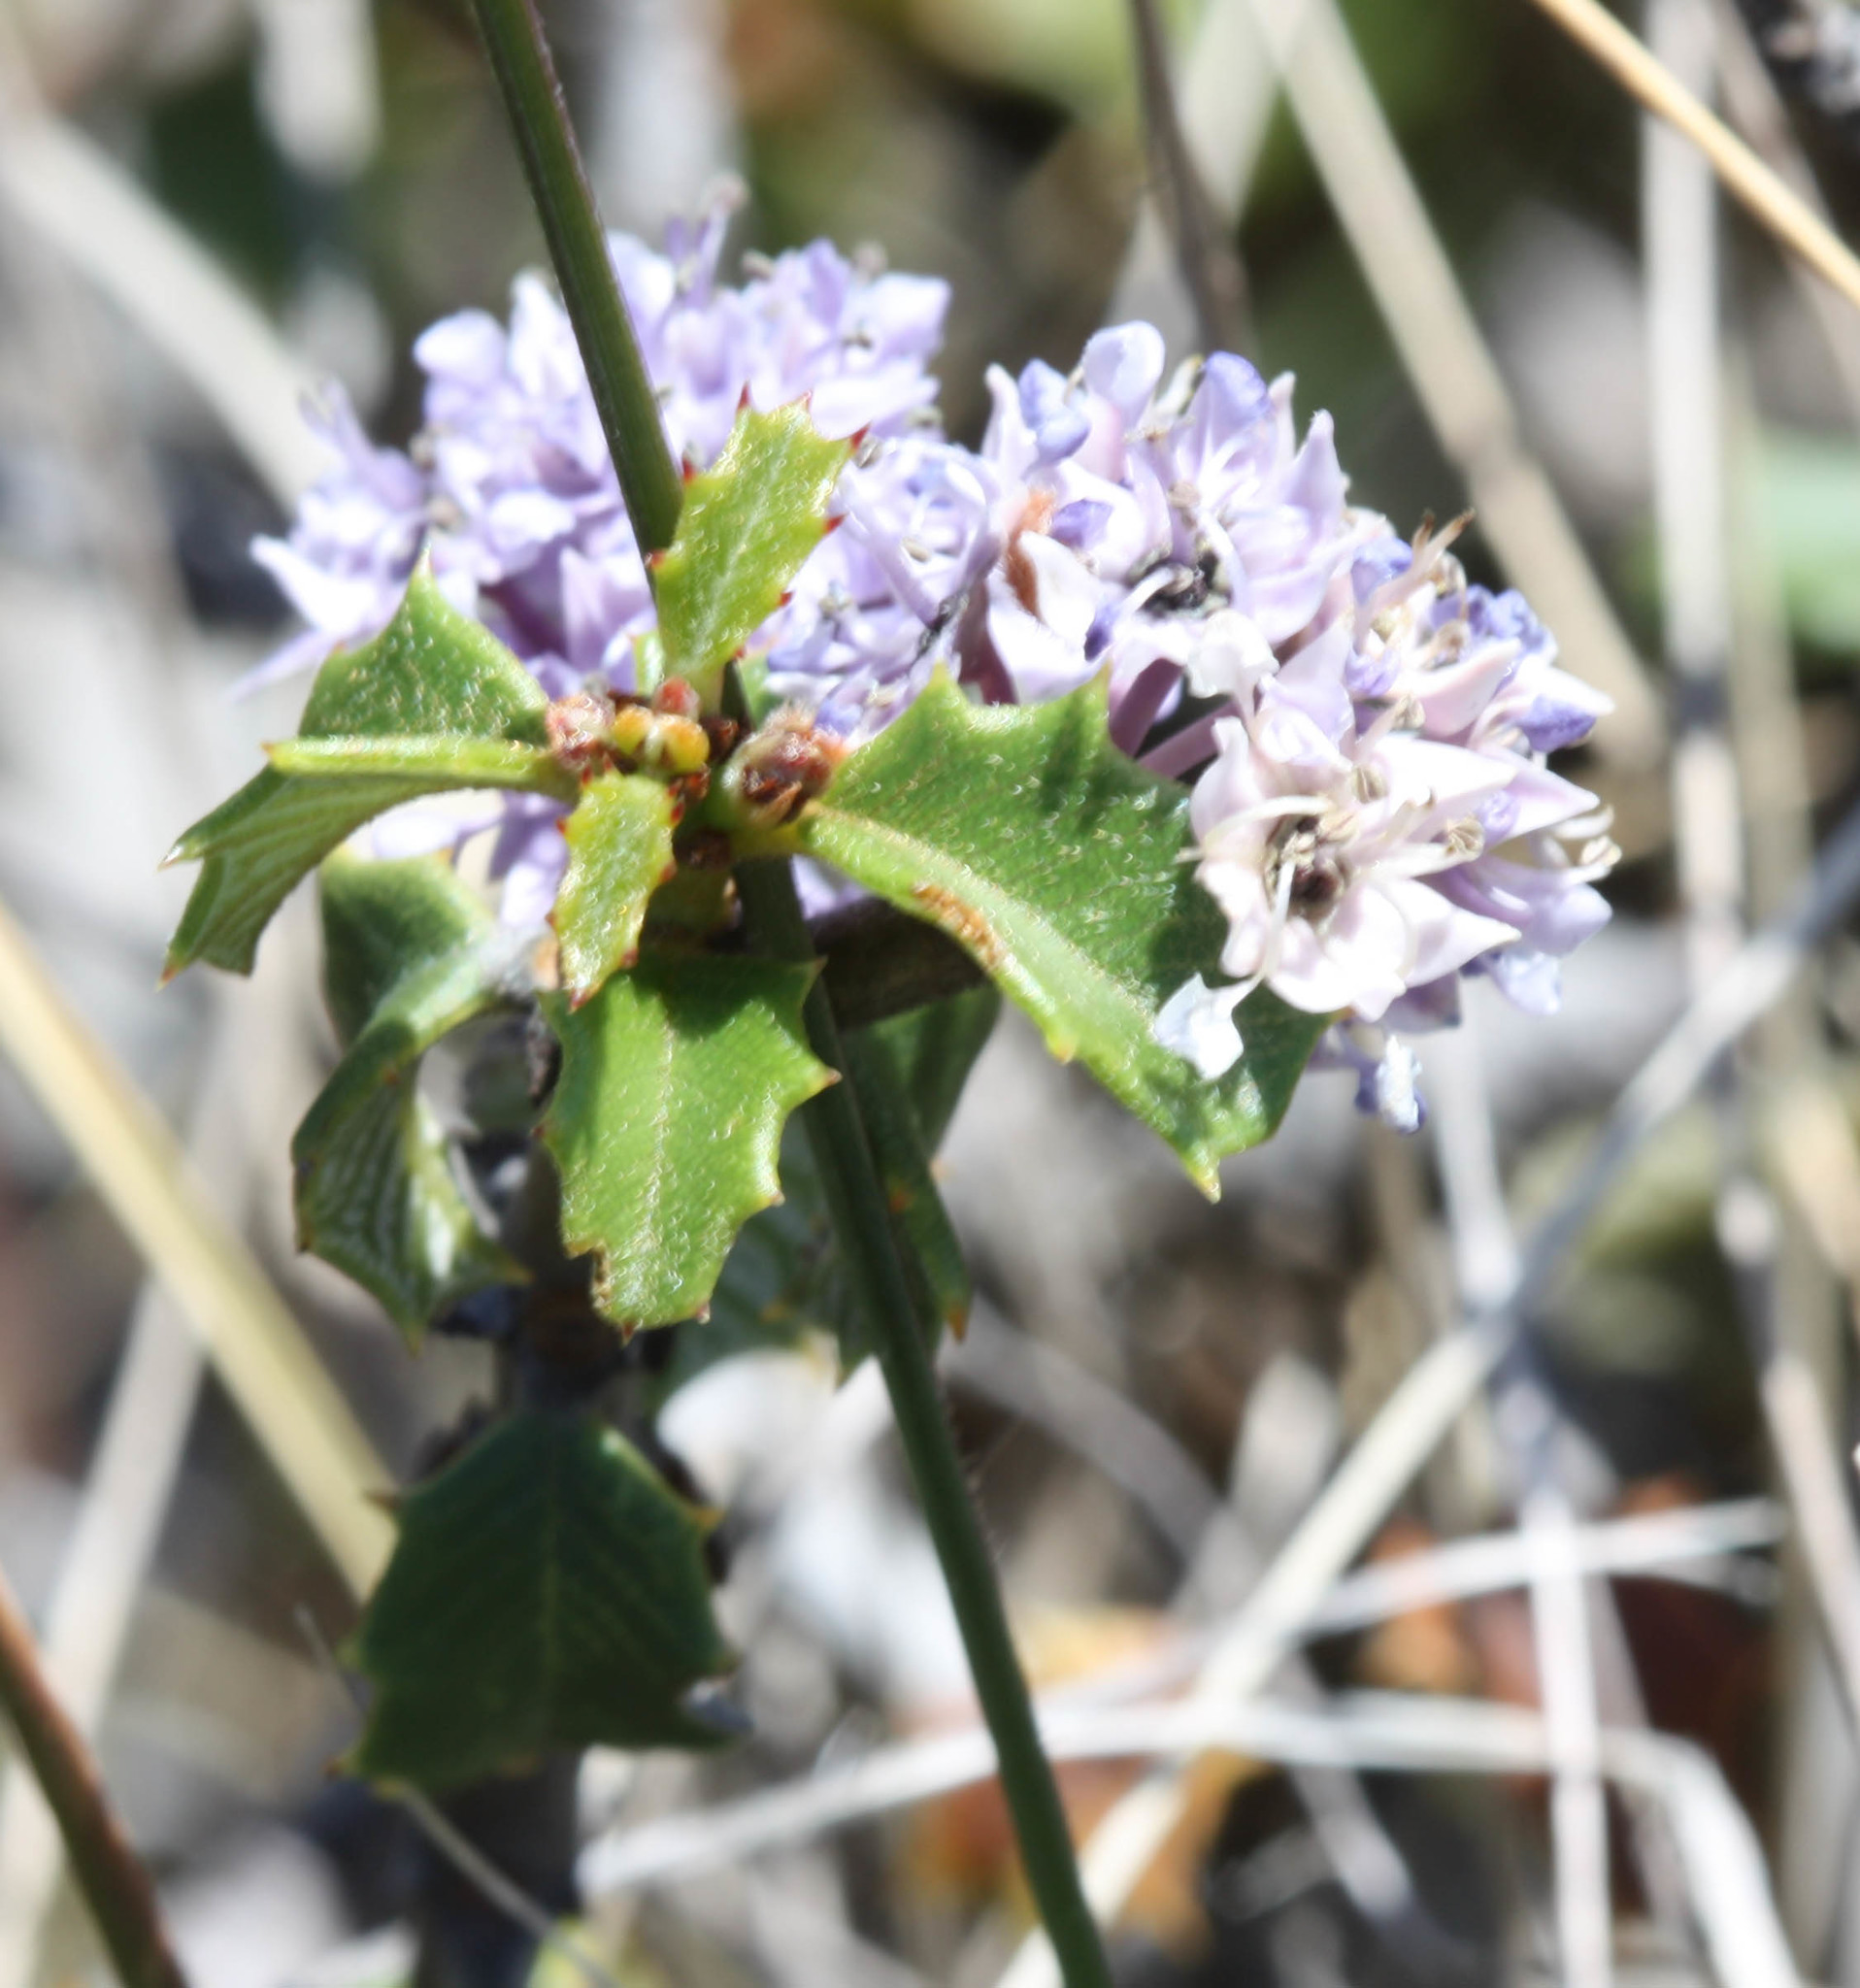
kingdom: Plantae
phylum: Tracheophyta
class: Magnoliopsida
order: Rosales
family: Rhamnaceae
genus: Ceanothus
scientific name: Ceanothus jepsonii
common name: Muskbrush
